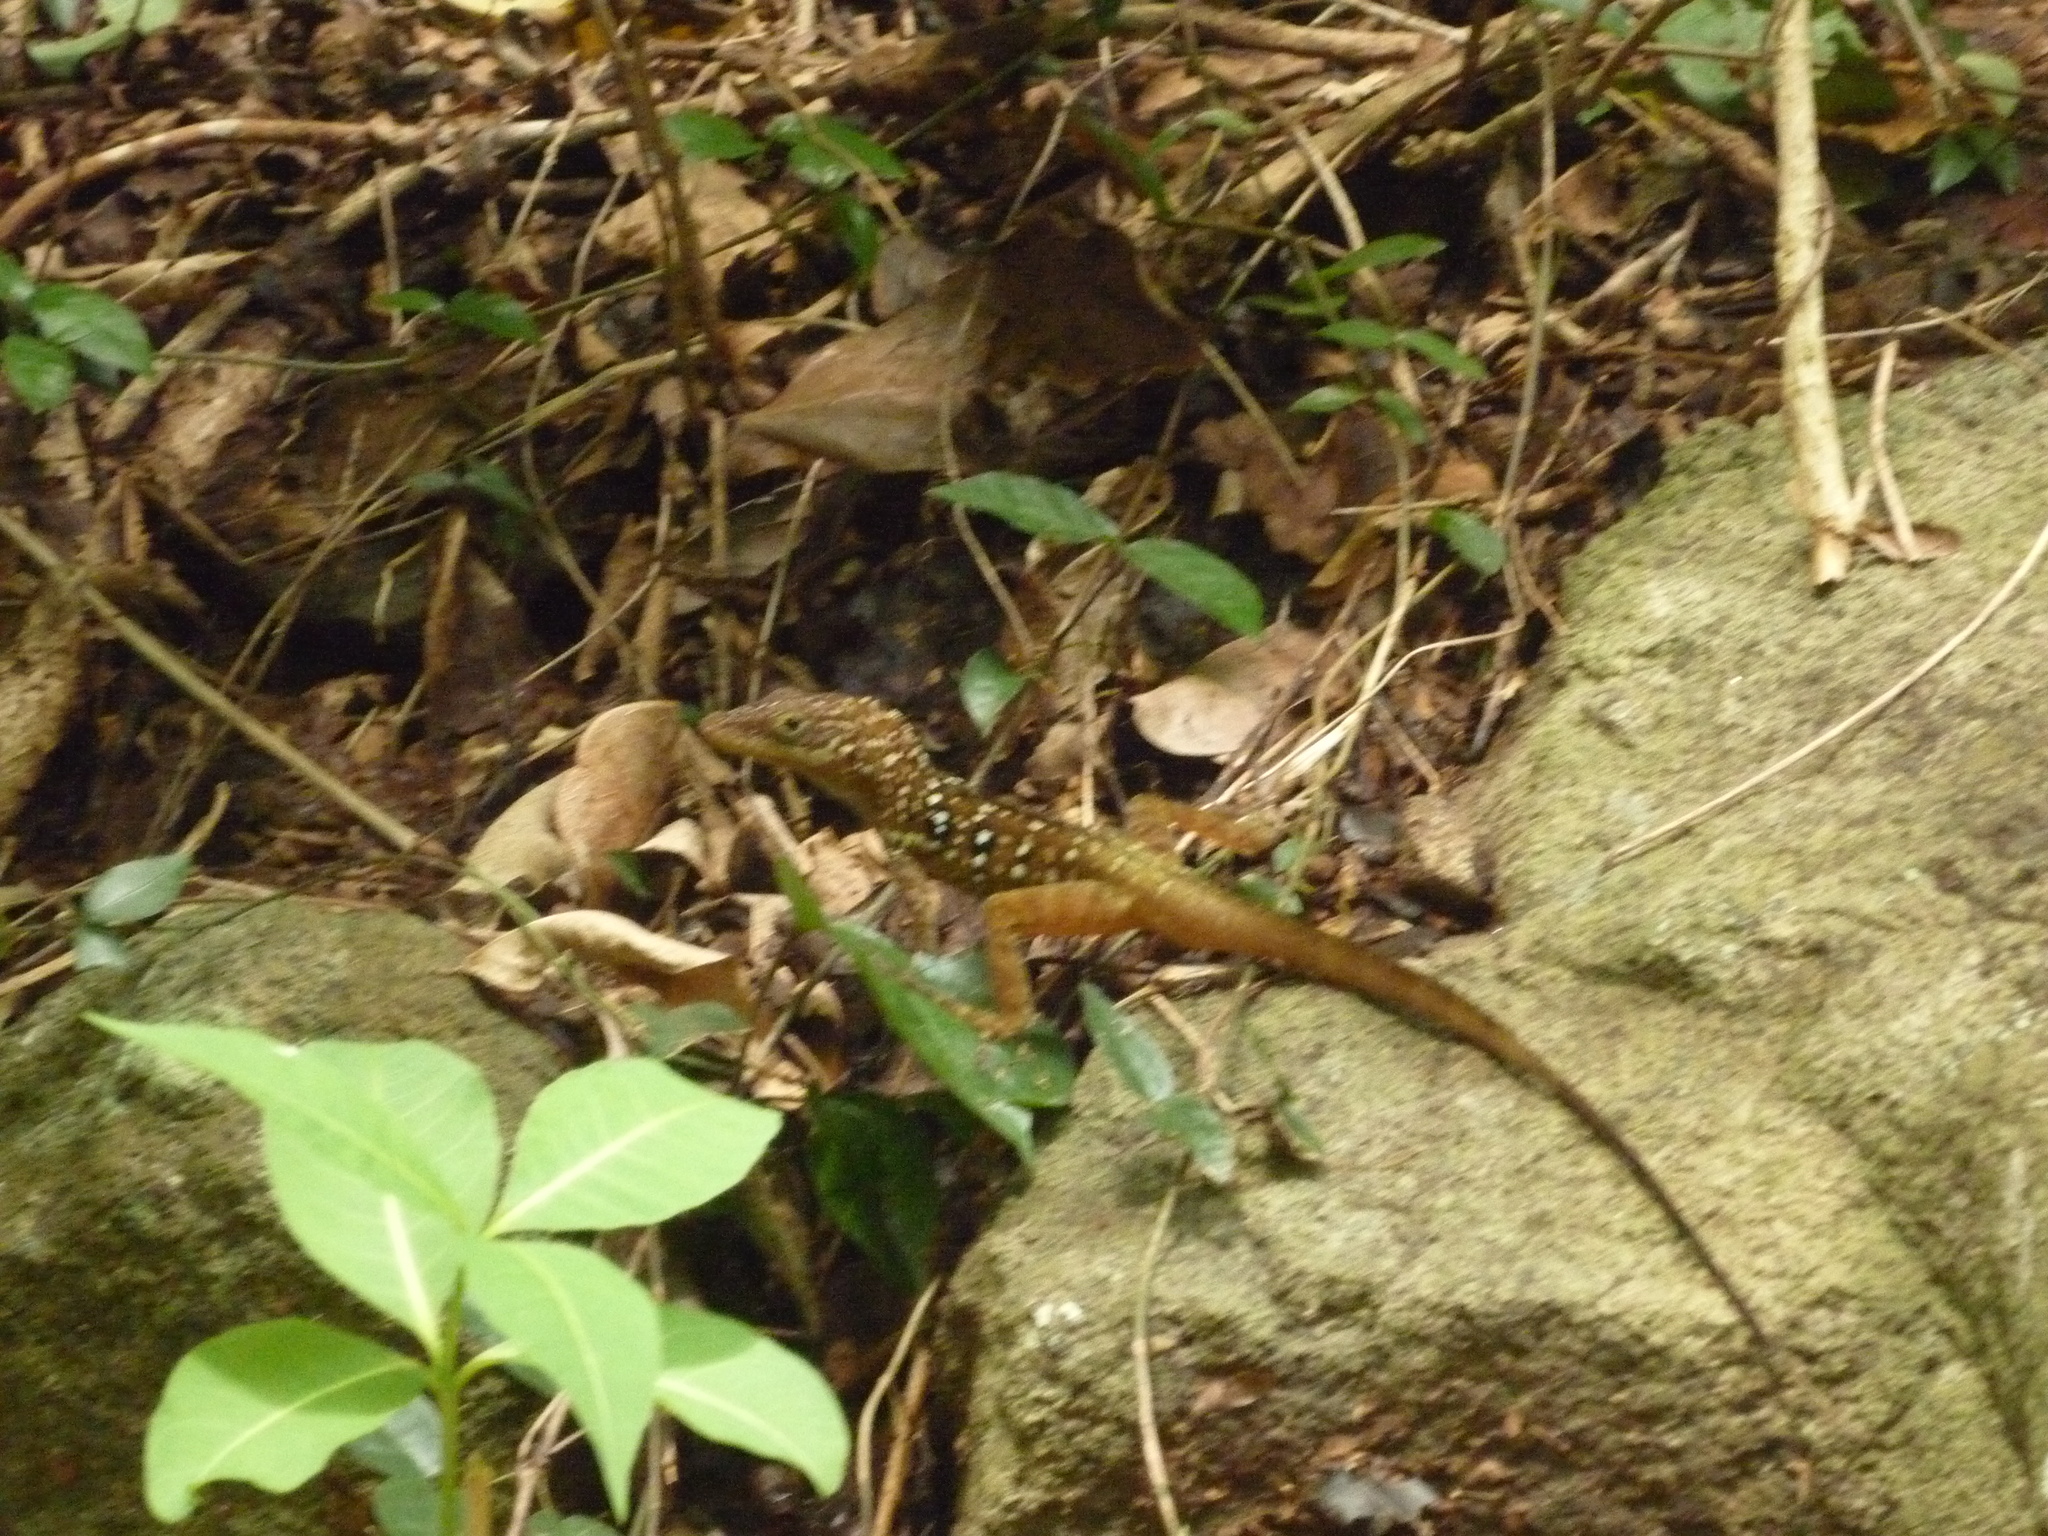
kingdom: Animalia
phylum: Chordata
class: Squamata
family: Dactyloidae
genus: Anolis
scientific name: Anolis oculatus
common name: Dominica anole
